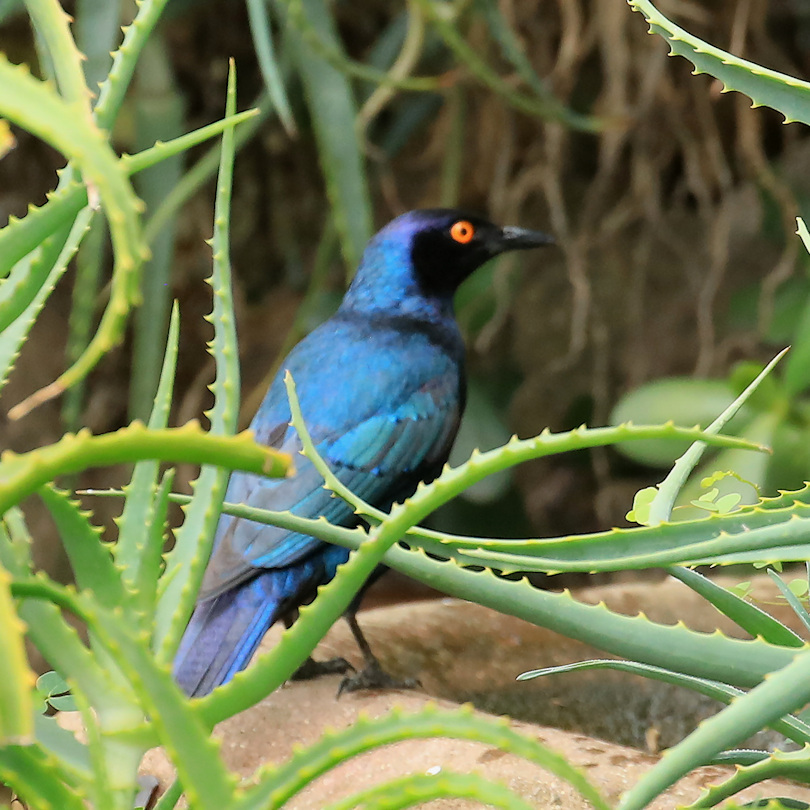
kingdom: Animalia
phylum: Chordata
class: Aves
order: Passeriformes
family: Sturnidae
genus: Lamprotornis
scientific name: Lamprotornis chalybaeus
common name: Greater blue-eared starling
